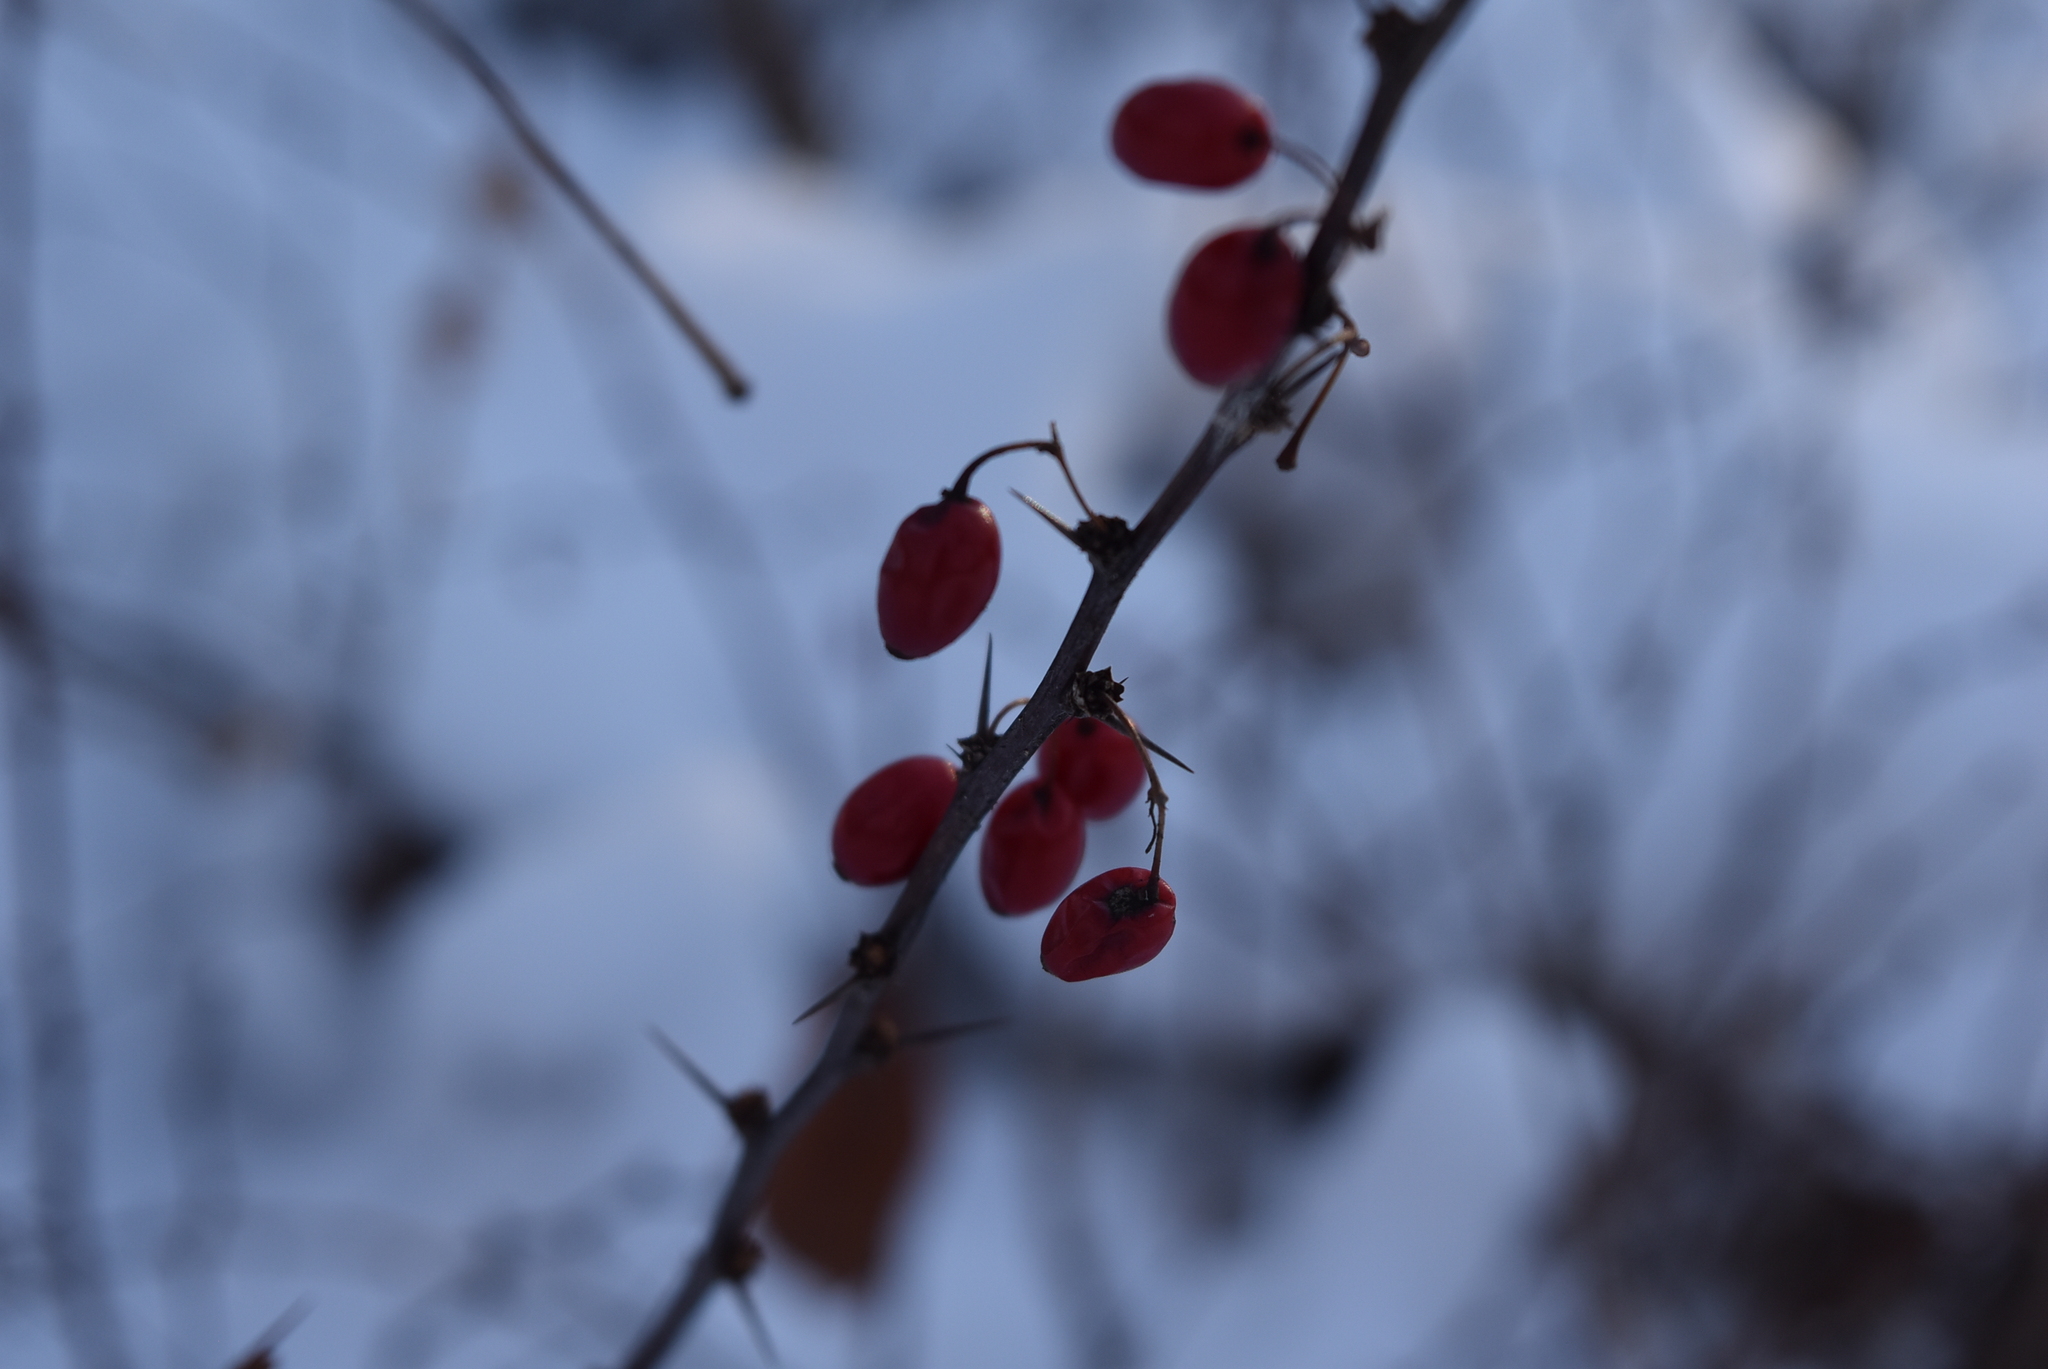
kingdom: Plantae
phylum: Tracheophyta
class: Magnoliopsida
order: Ranunculales
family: Berberidaceae
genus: Berberis
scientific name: Berberis thunbergii
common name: Japanese barberry
